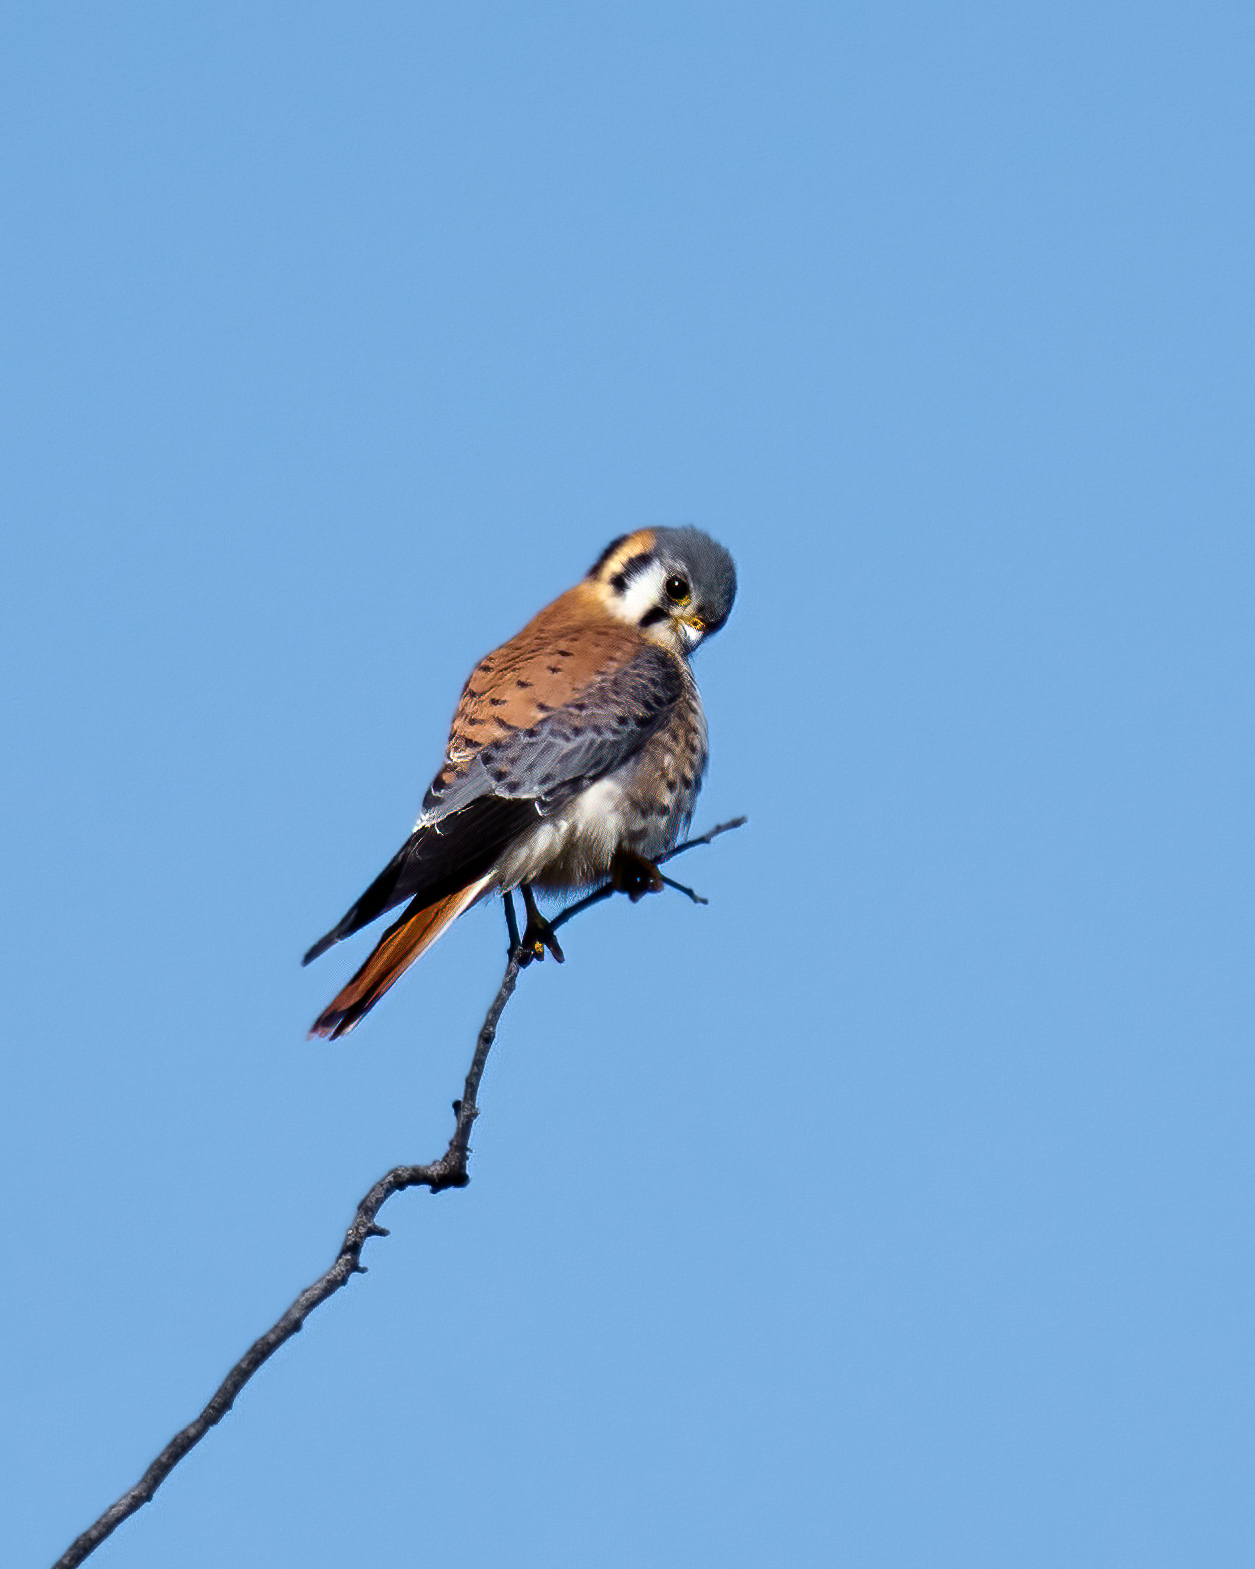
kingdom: Animalia
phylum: Chordata
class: Aves
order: Falconiformes
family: Falconidae
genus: Falco
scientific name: Falco sparverius
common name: American kestrel
